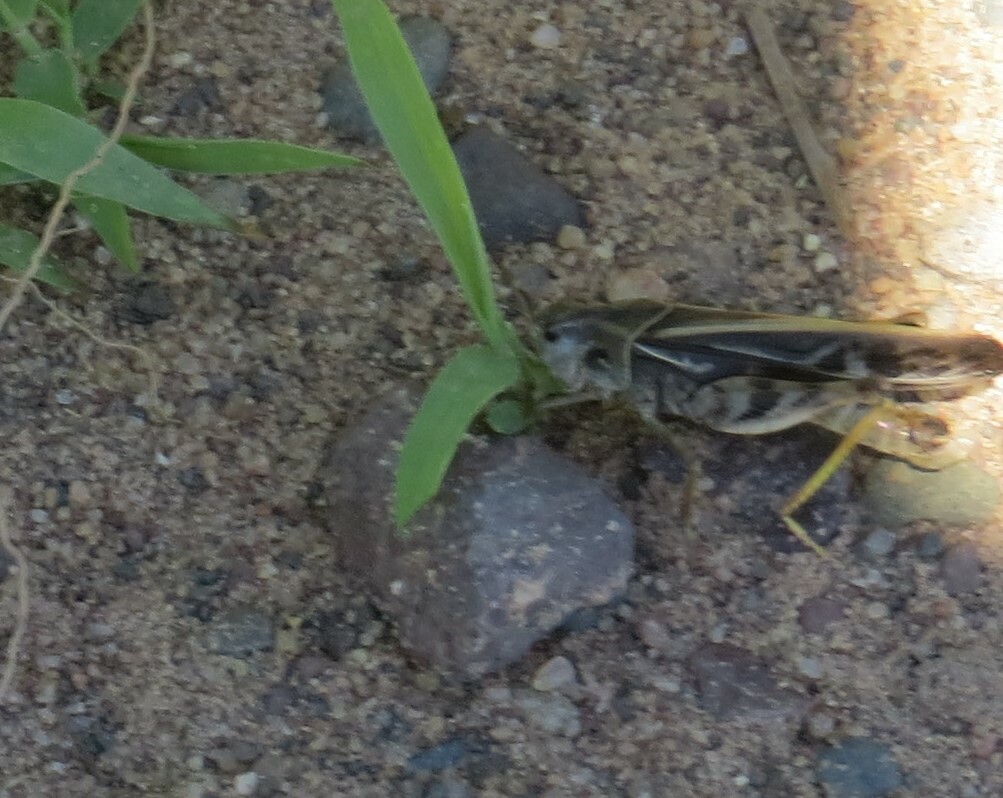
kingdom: Animalia
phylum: Arthropoda
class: Insecta
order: Orthoptera
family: Acrididae
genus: Pardalophora
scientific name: Pardalophora apiculata
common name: Coral-winged locust
